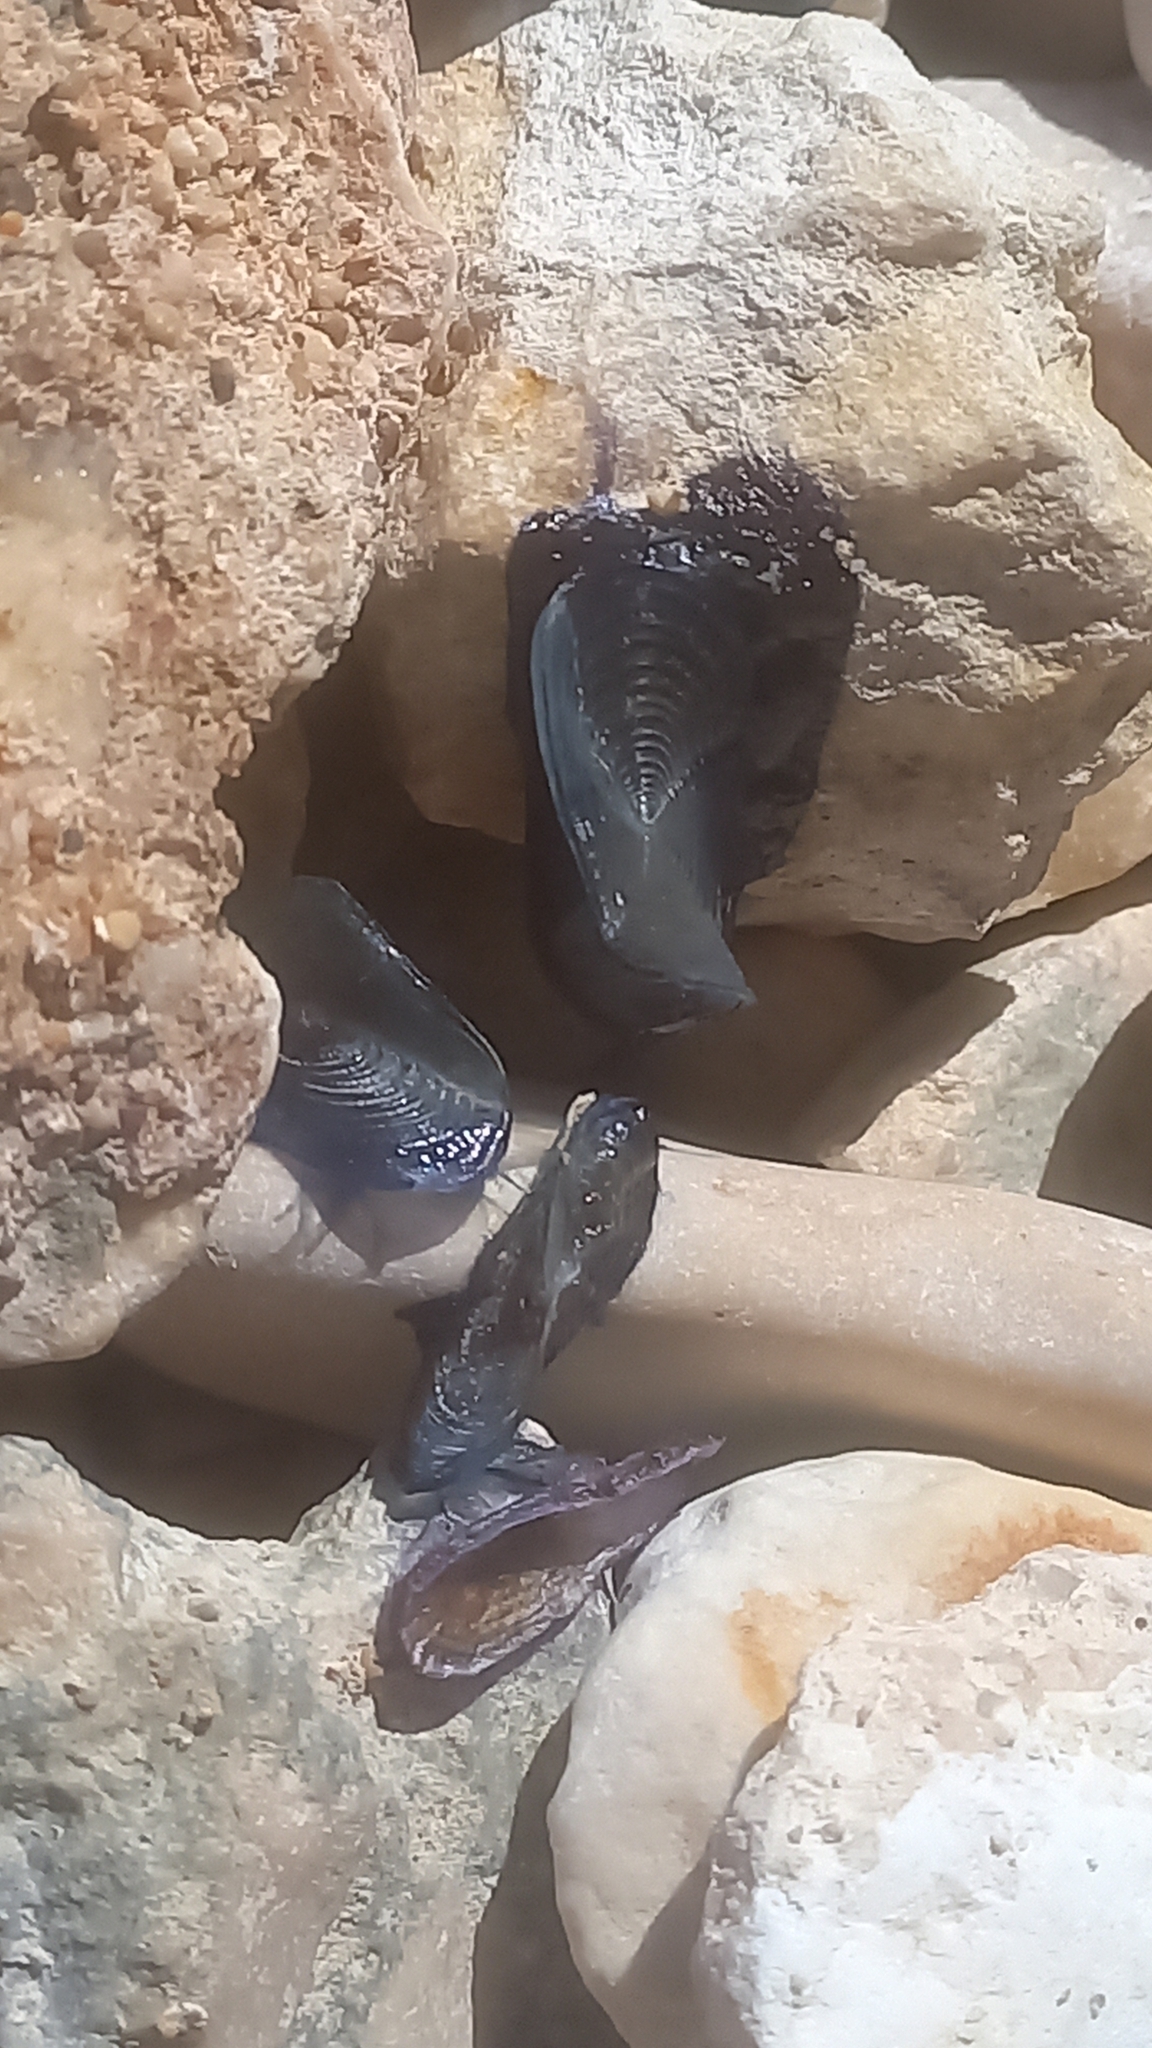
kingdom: Animalia
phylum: Cnidaria
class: Hydrozoa
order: Anthoathecata
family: Porpitidae
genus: Velella
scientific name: Velella velella
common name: By-the-wind-sailor
